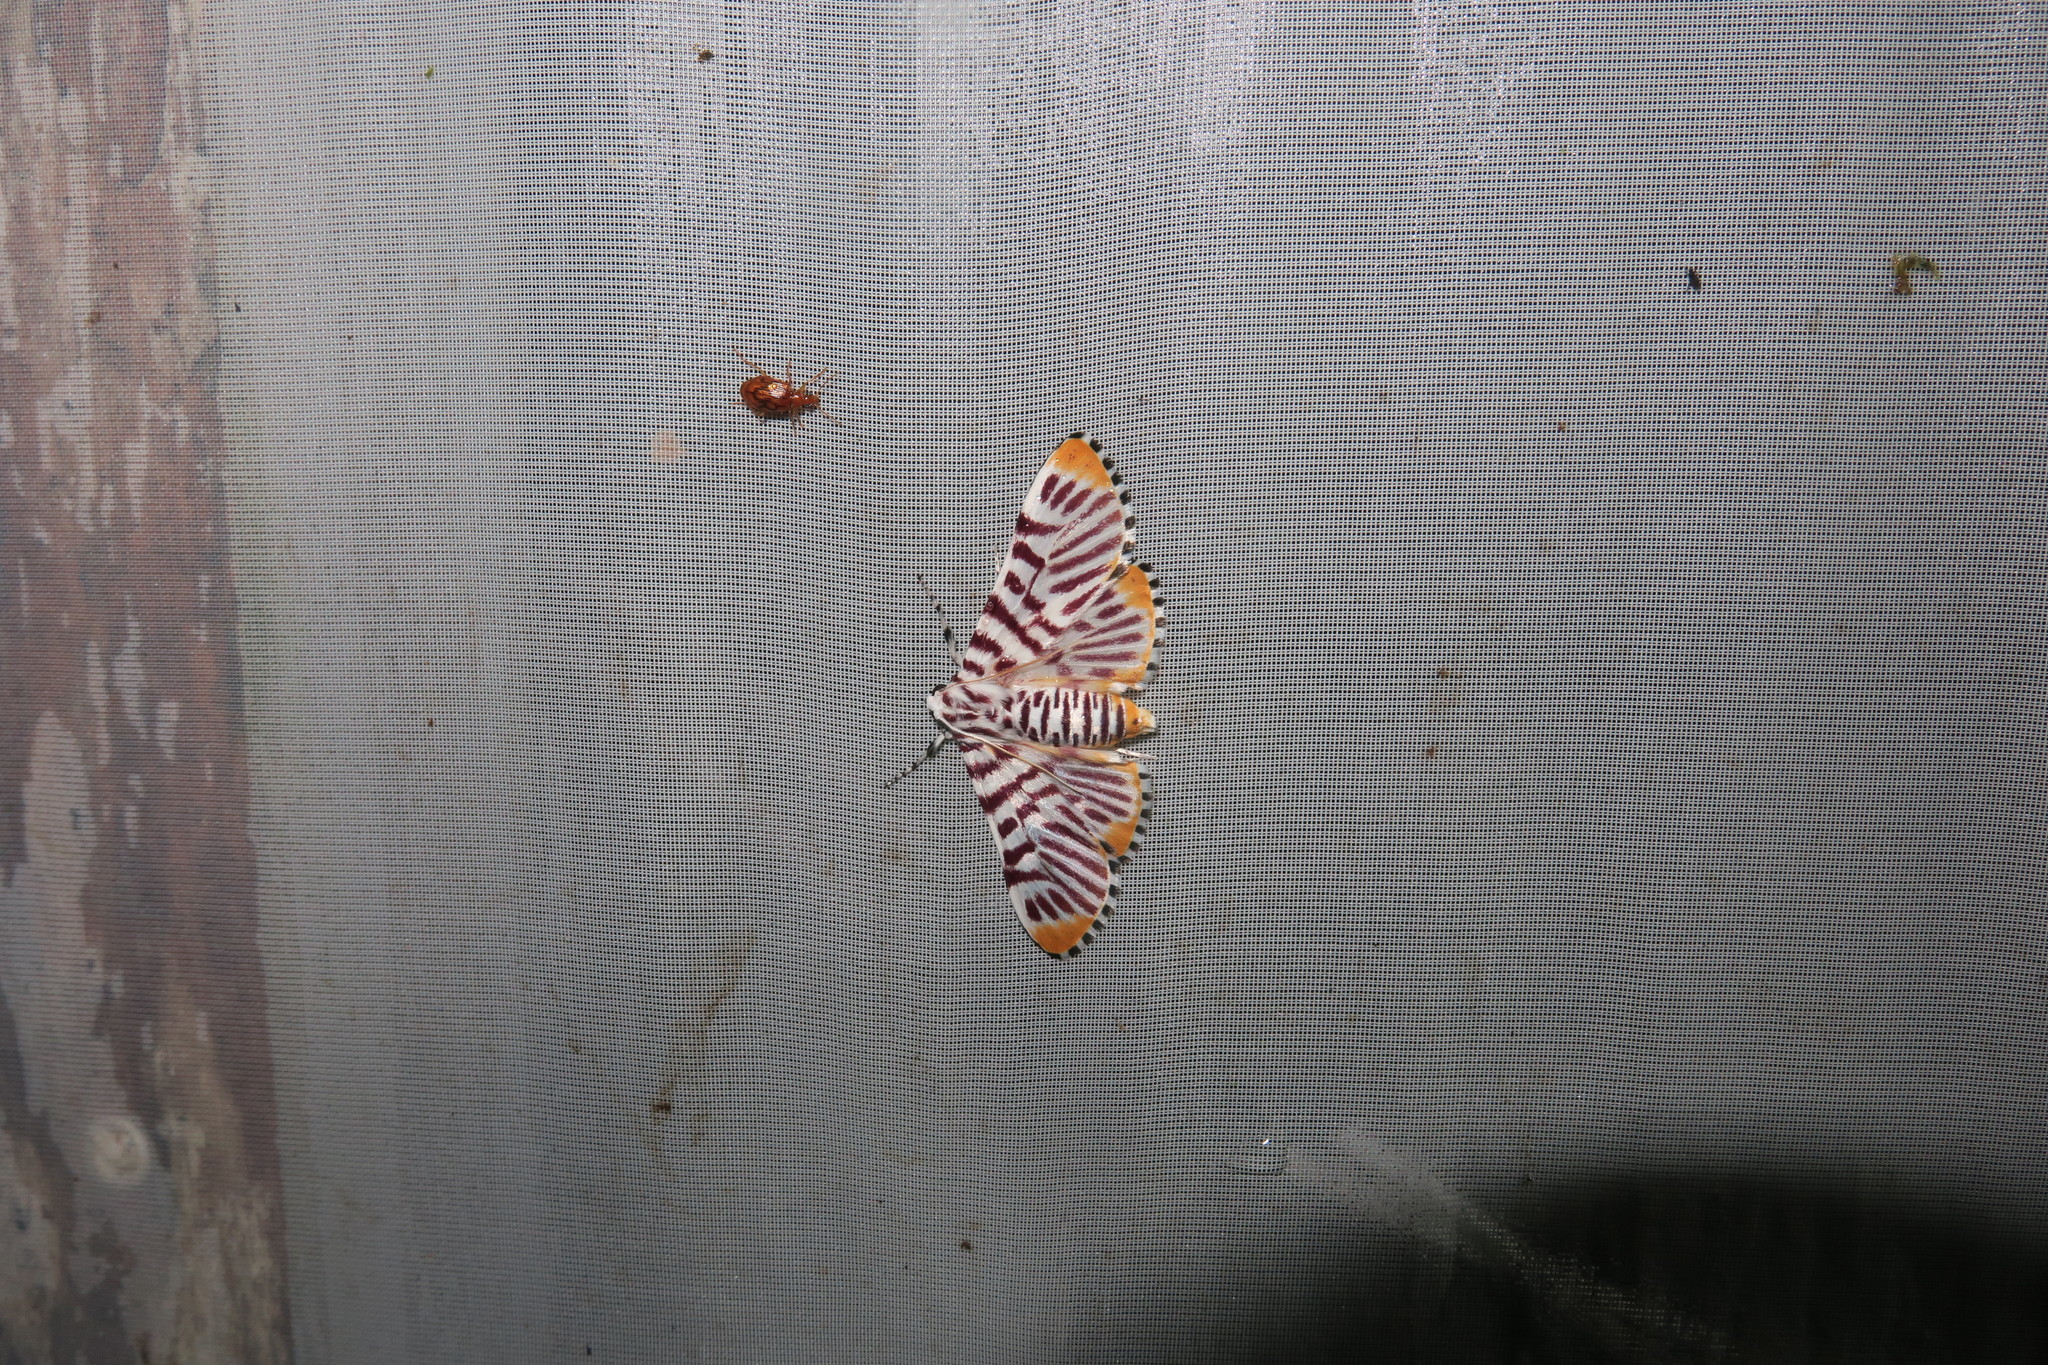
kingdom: Animalia
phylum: Arthropoda
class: Insecta
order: Lepidoptera
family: Crambidae
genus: Polygrammodes
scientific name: Polygrammodes maccalis
